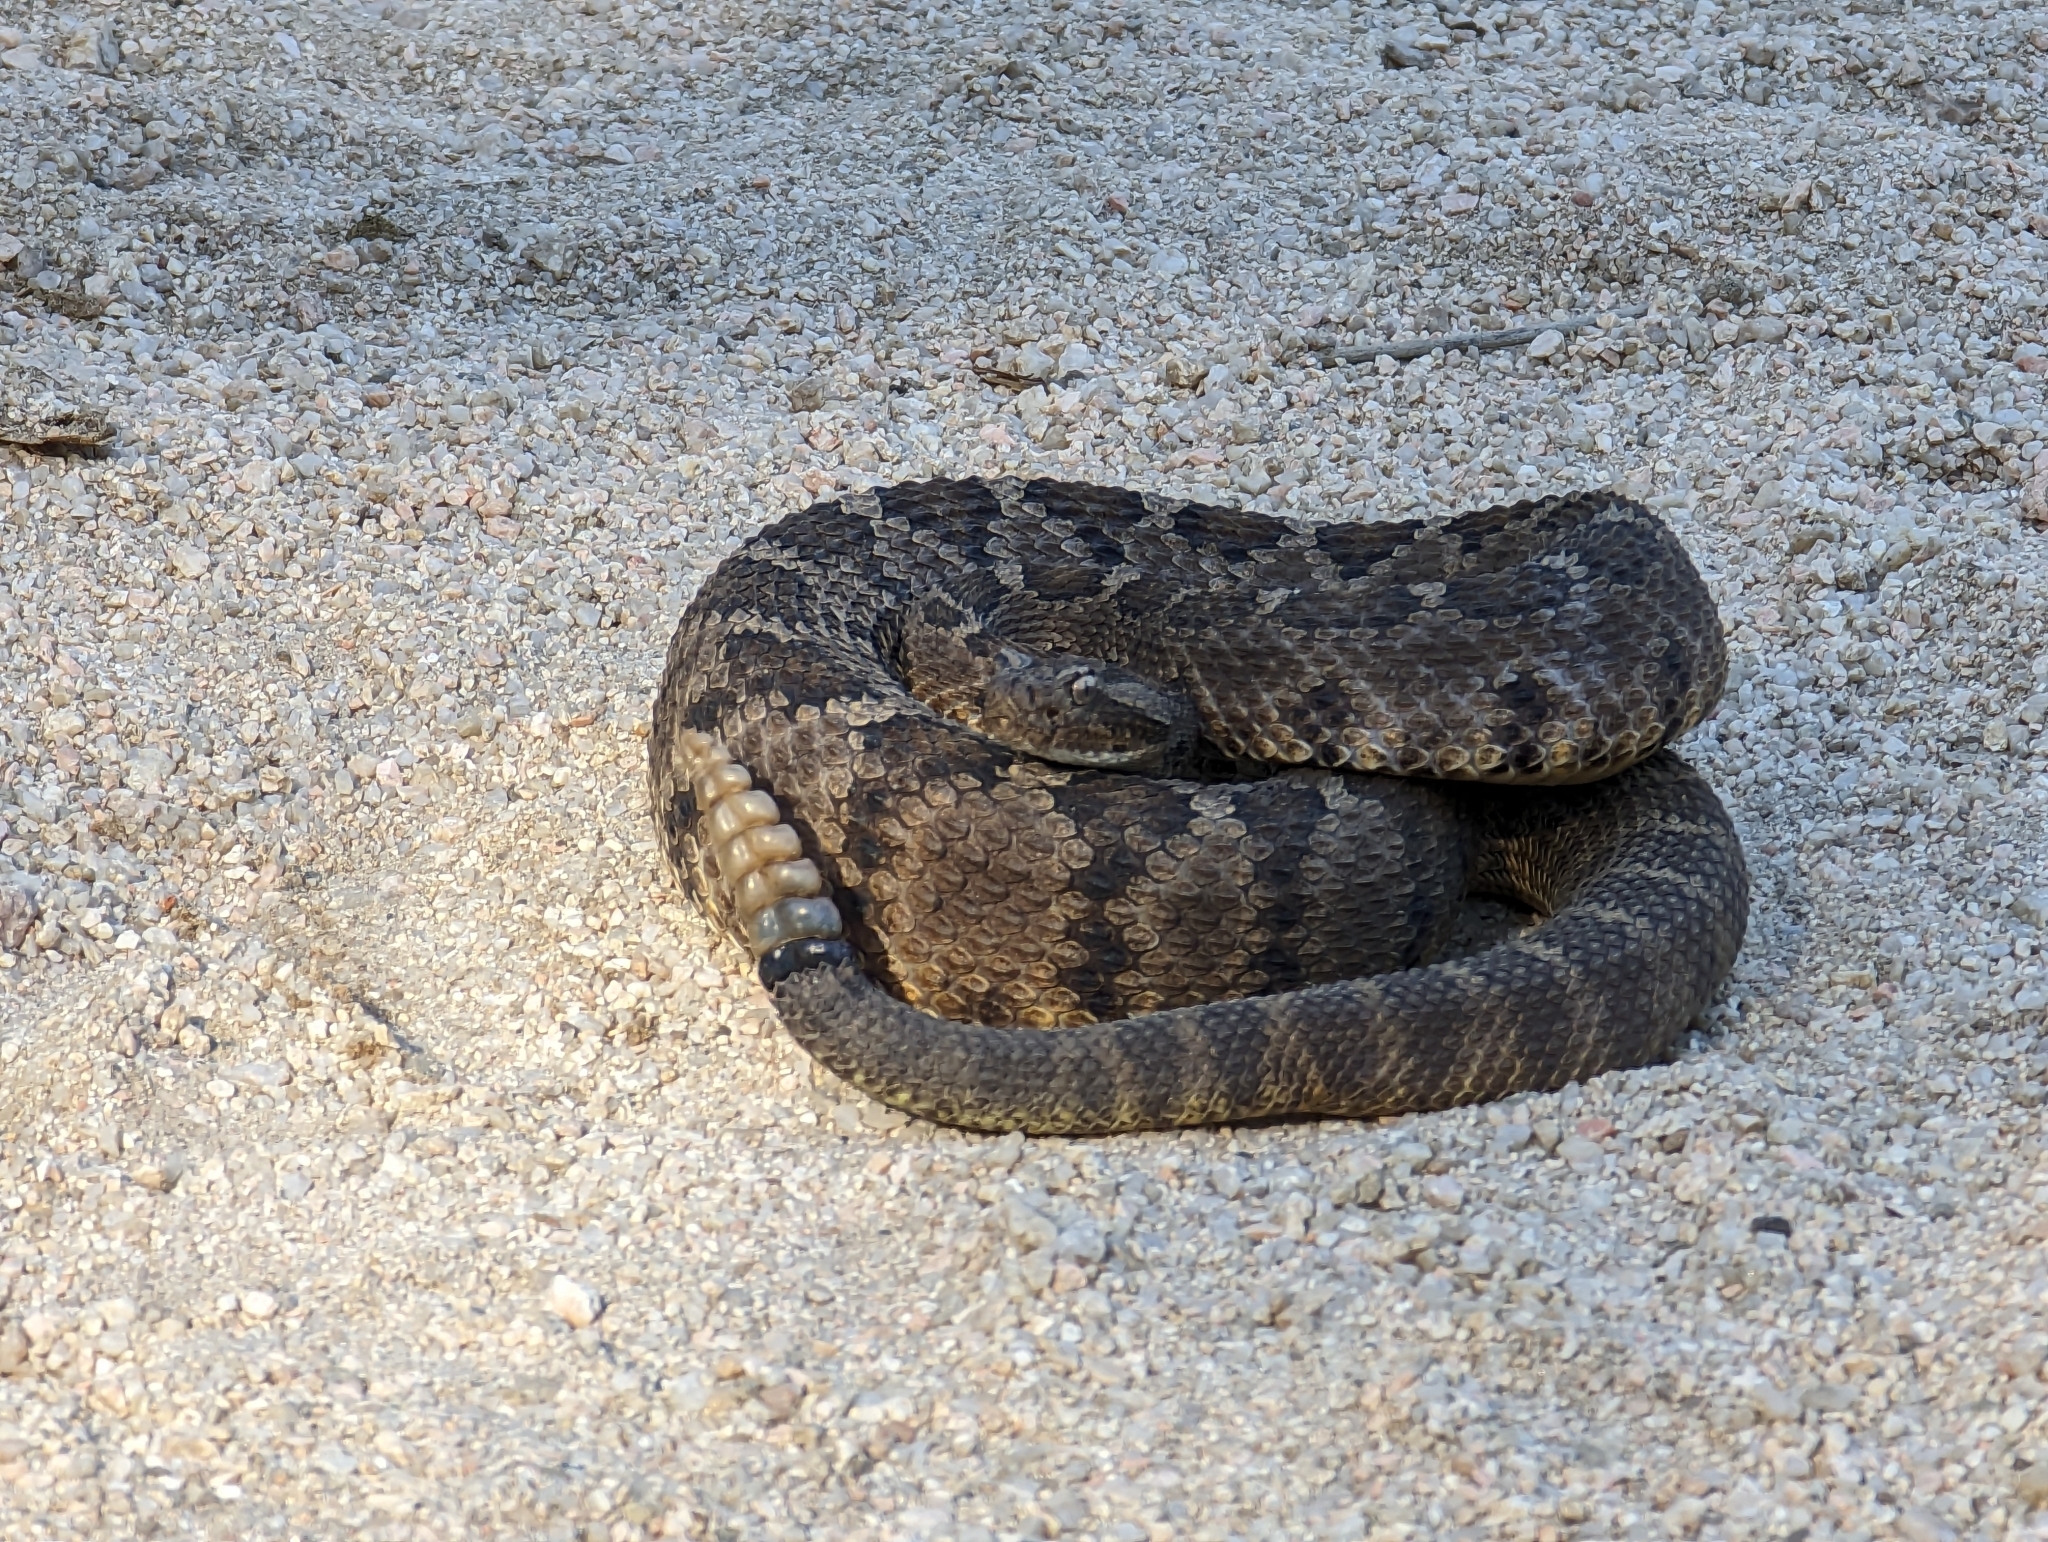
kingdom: Animalia
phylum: Chordata
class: Squamata
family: Viperidae
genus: Crotalus
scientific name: Crotalus enyo
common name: Lower california rattlesnake
